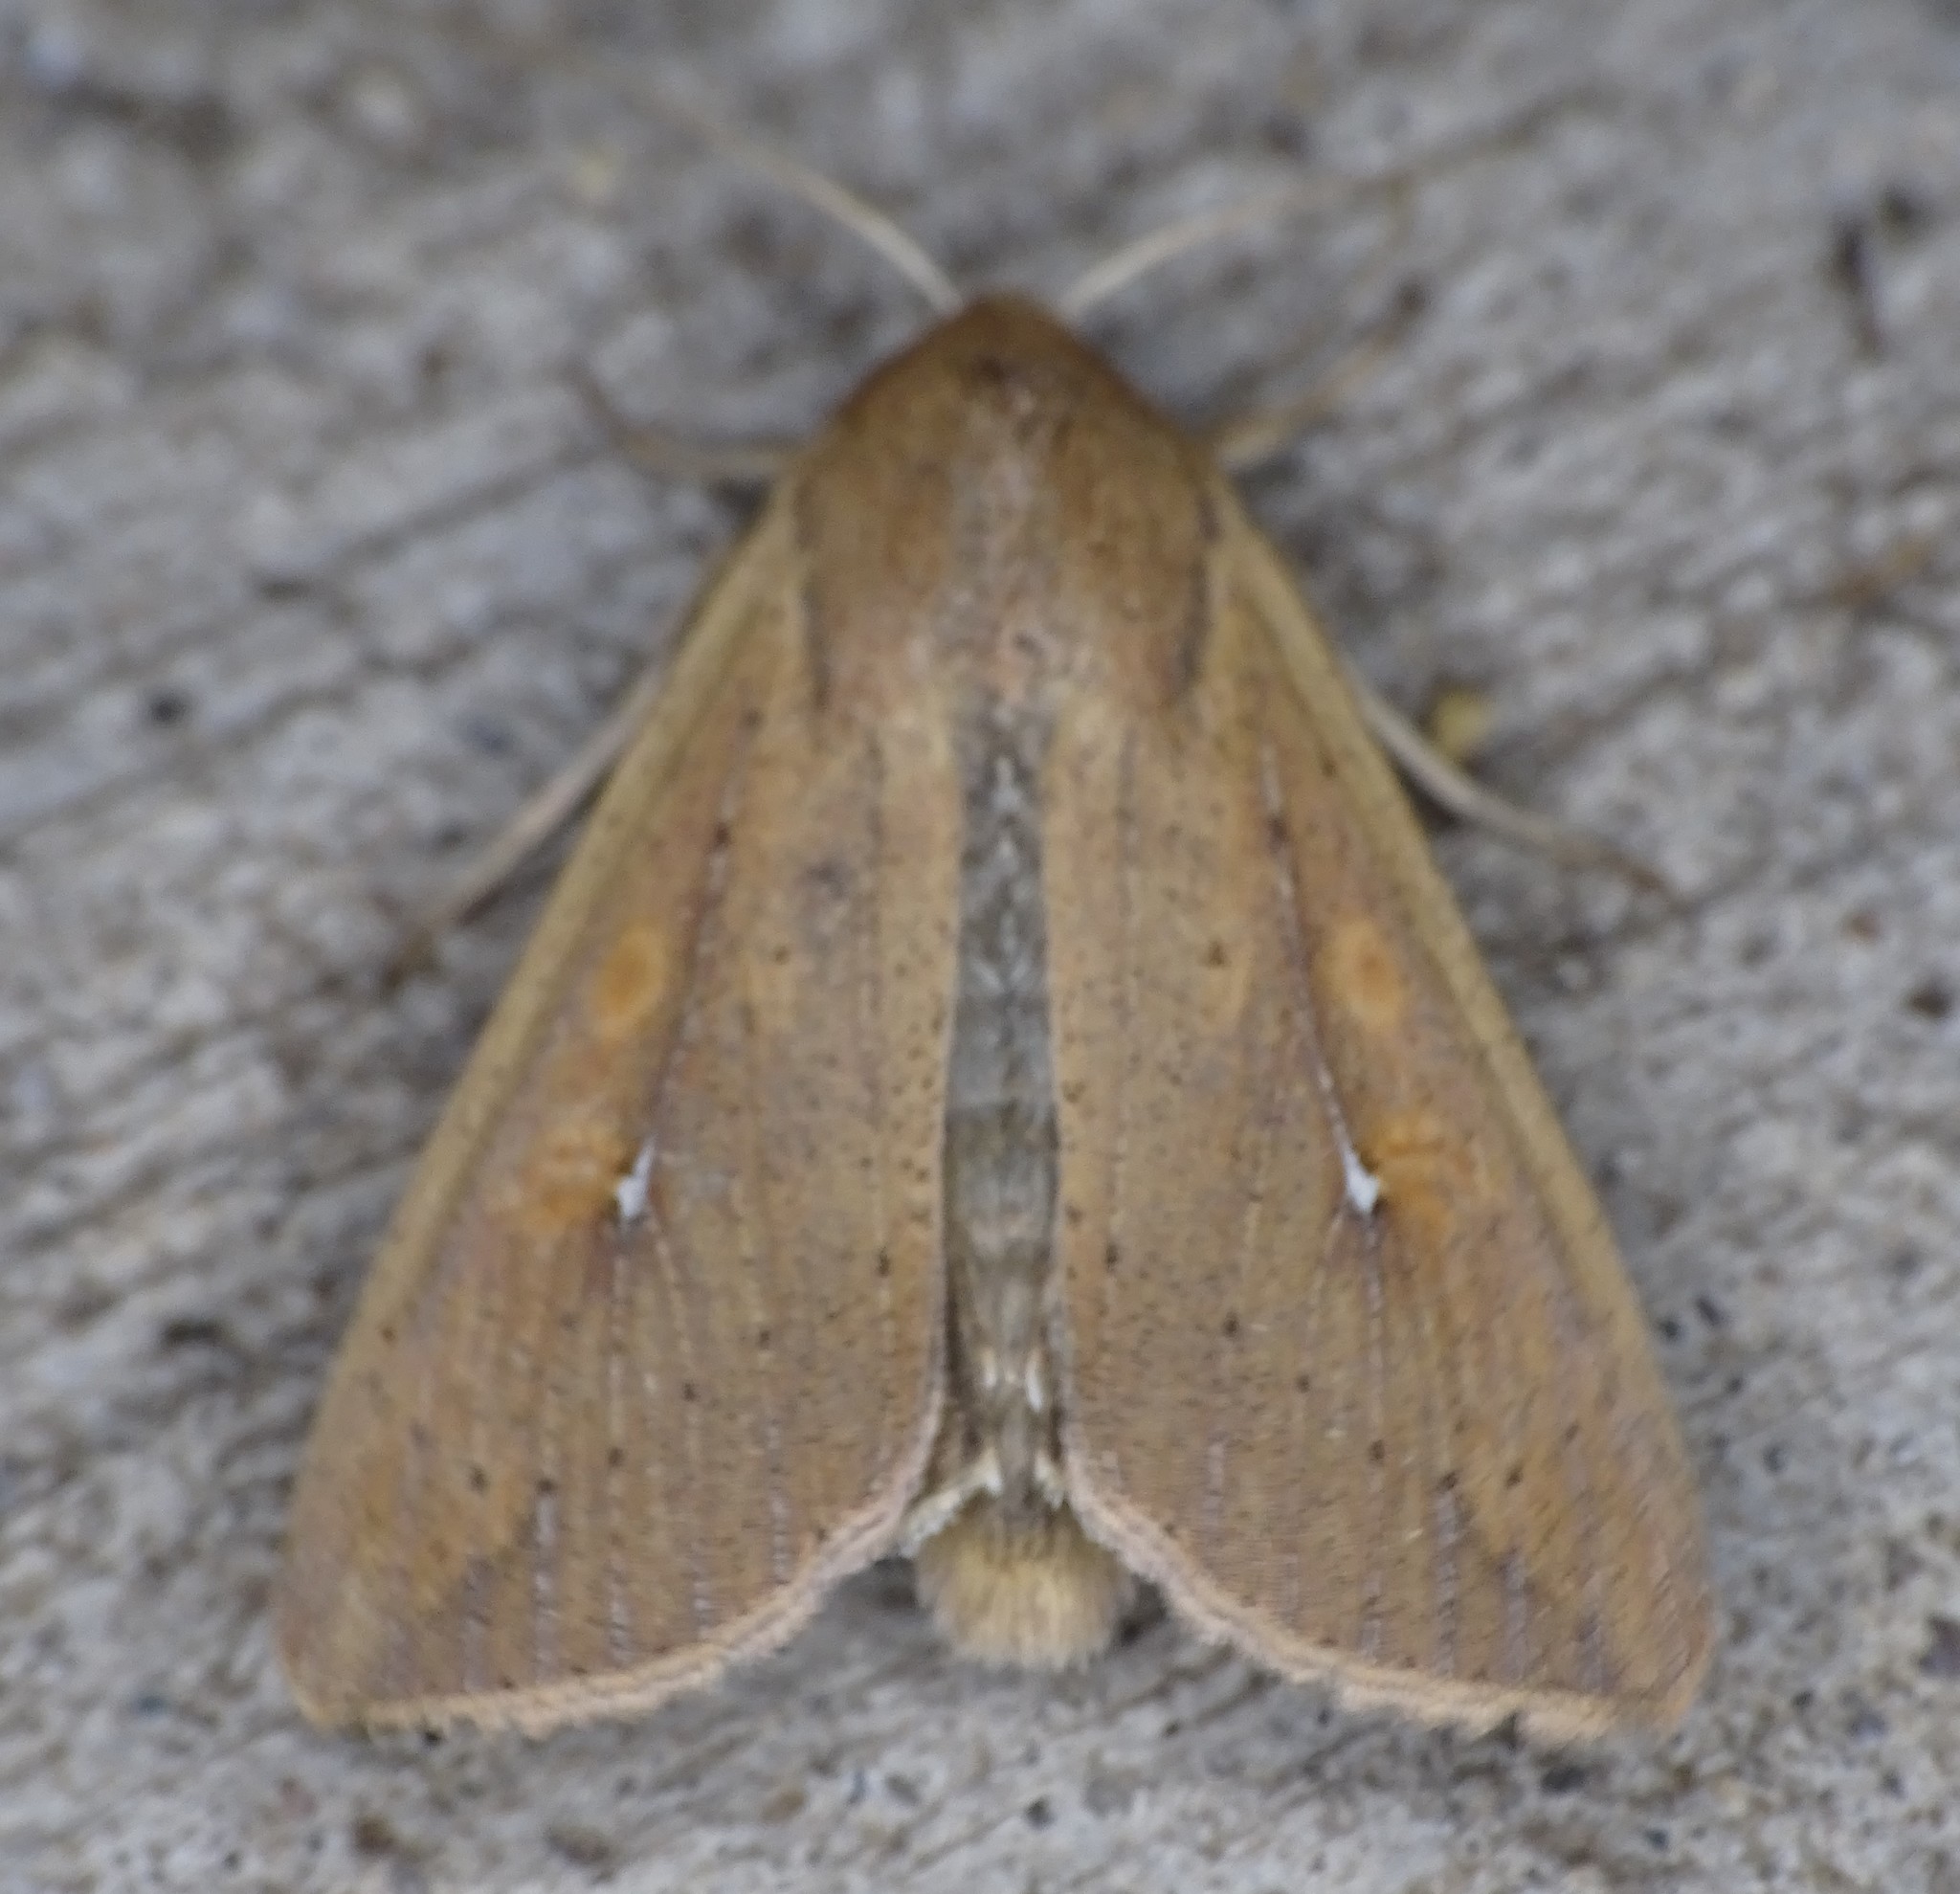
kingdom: Animalia
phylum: Arthropoda
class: Insecta
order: Lepidoptera
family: Noctuidae
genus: Mythimna
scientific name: Mythimna unipuncta
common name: White-speck
